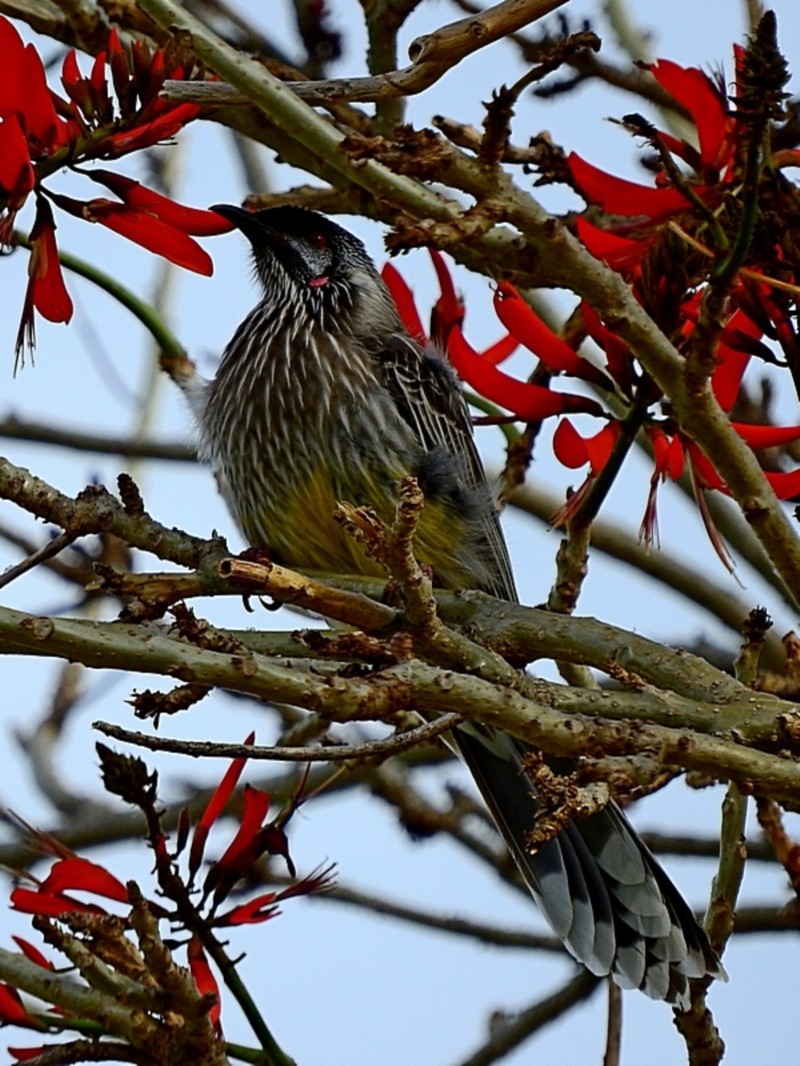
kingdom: Animalia
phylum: Chordata
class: Aves
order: Passeriformes
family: Meliphagidae
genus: Anthochaera
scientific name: Anthochaera carunculata
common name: Red wattlebird
